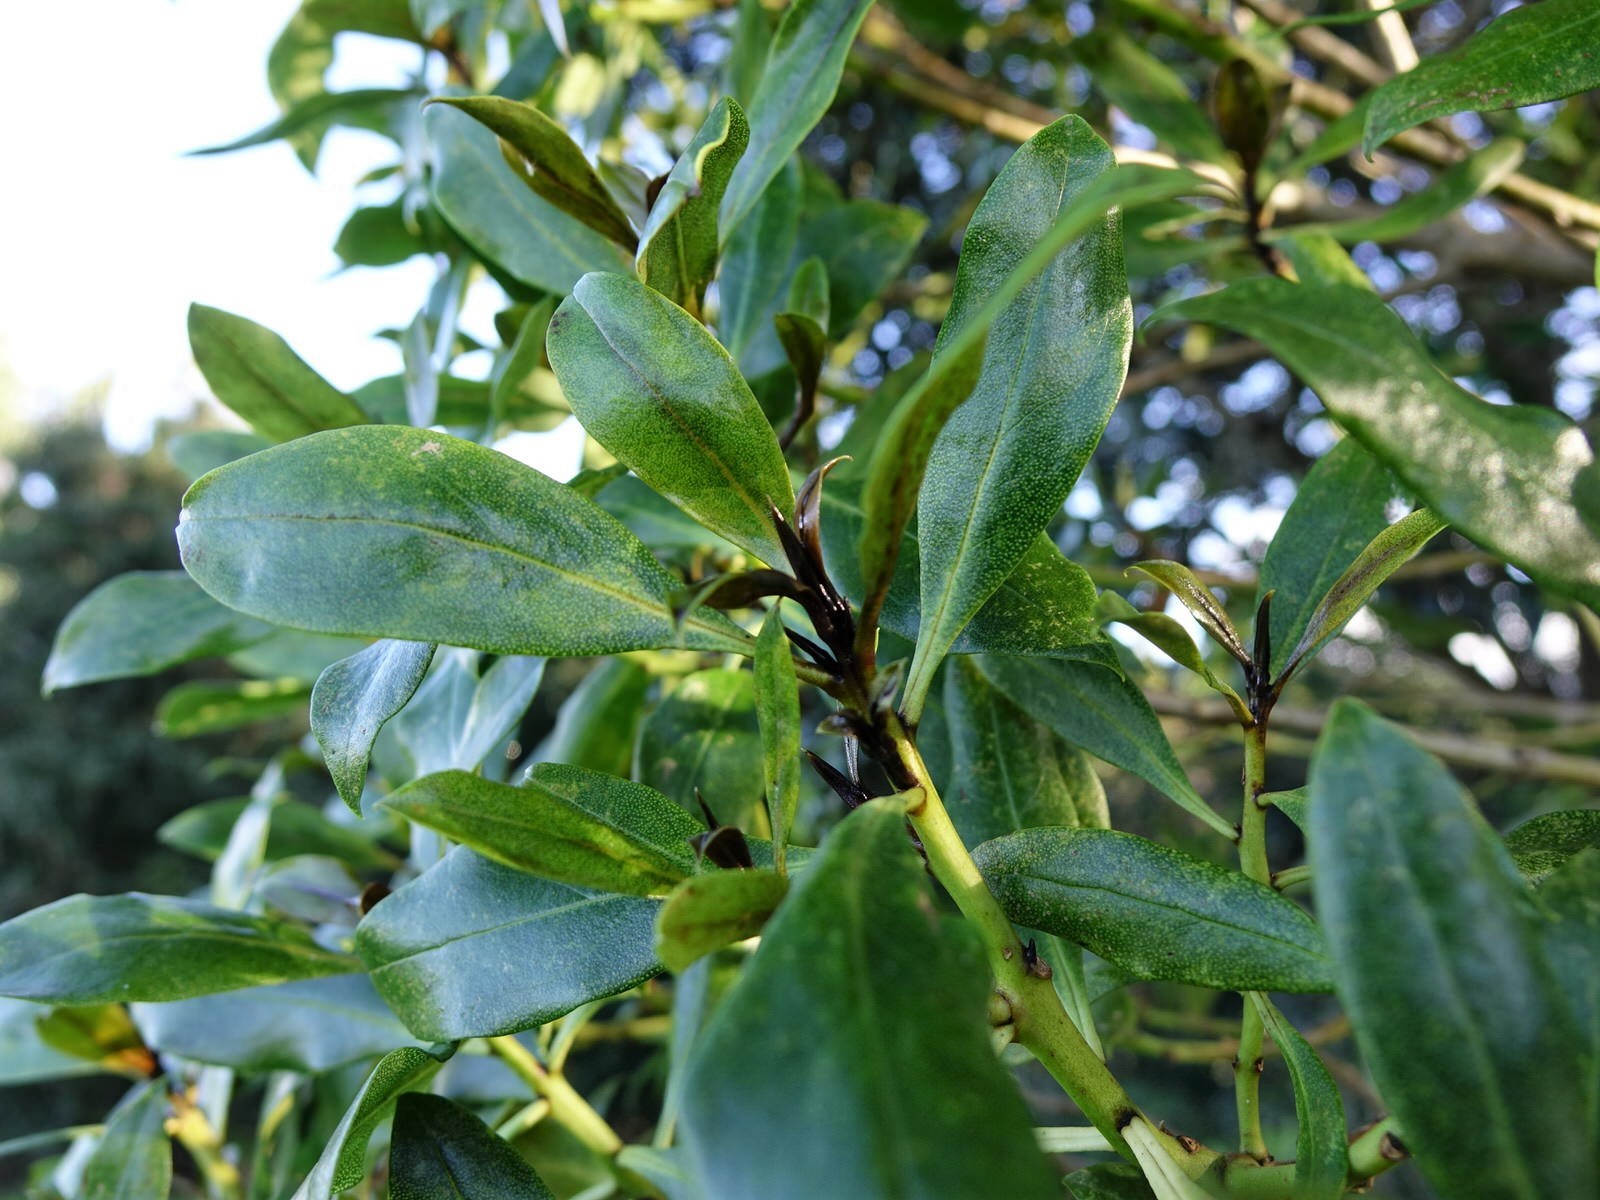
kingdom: Plantae
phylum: Tracheophyta
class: Magnoliopsida
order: Lamiales
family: Scrophulariaceae
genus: Myoporum
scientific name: Myoporum laetum
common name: Ngaio tree
